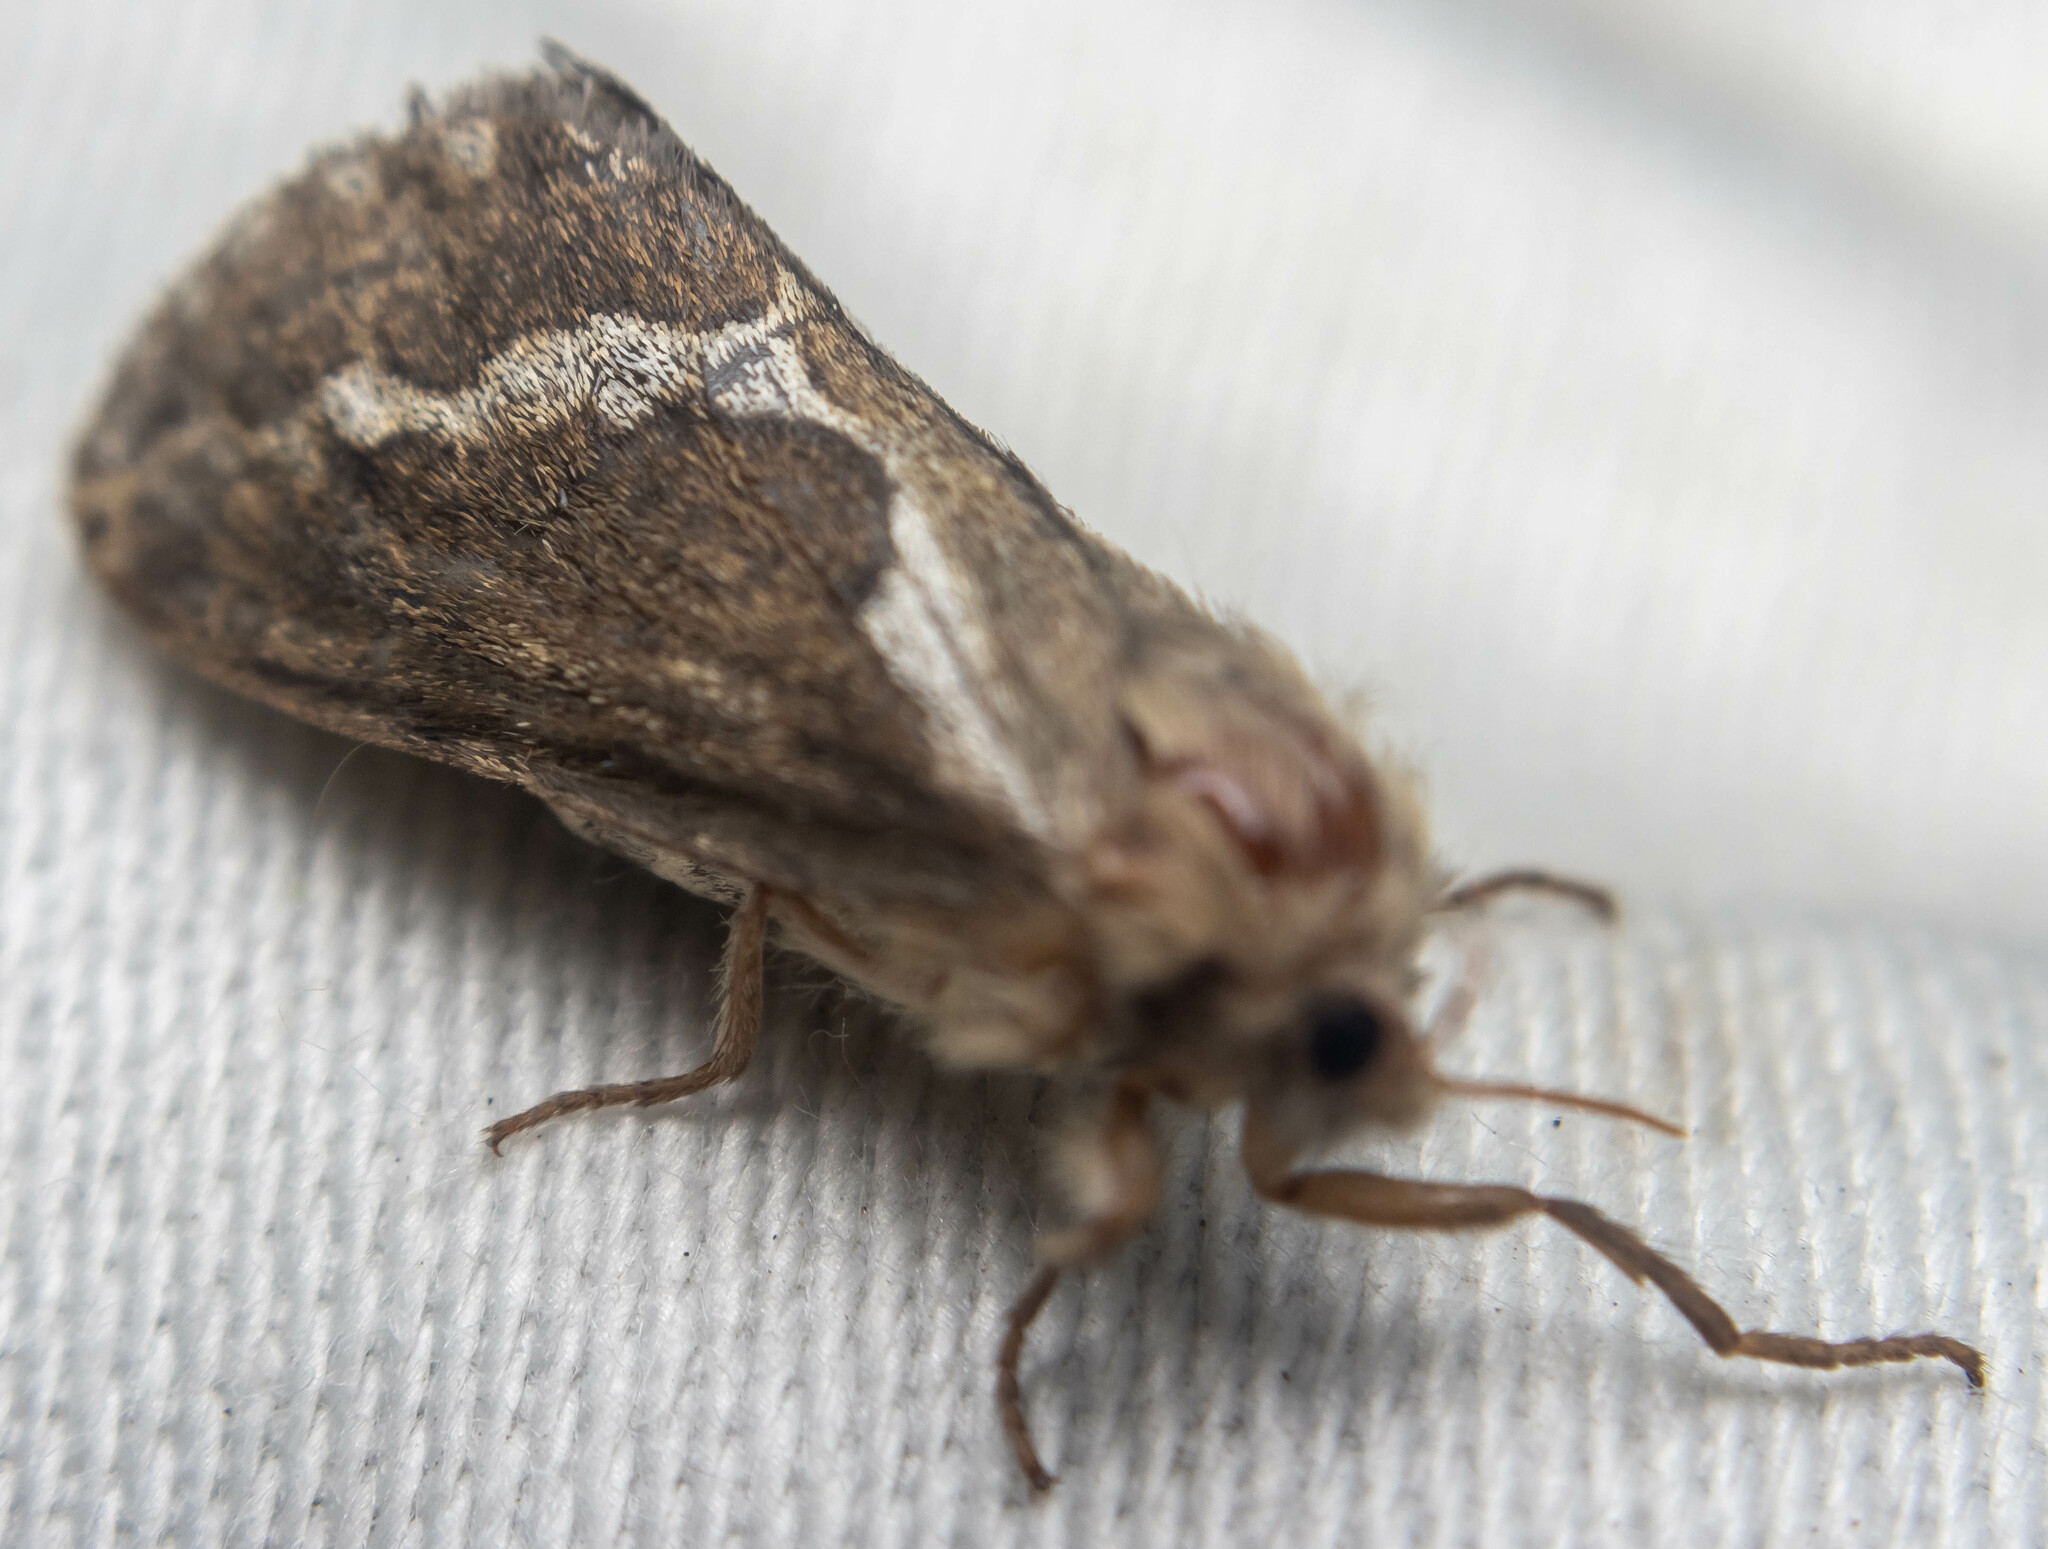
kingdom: Animalia
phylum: Arthropoda
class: Insecta
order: Lepidoptera
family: Hepialidae
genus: Korscheltellus
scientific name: Korscheltellus lupulina
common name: Common swift
